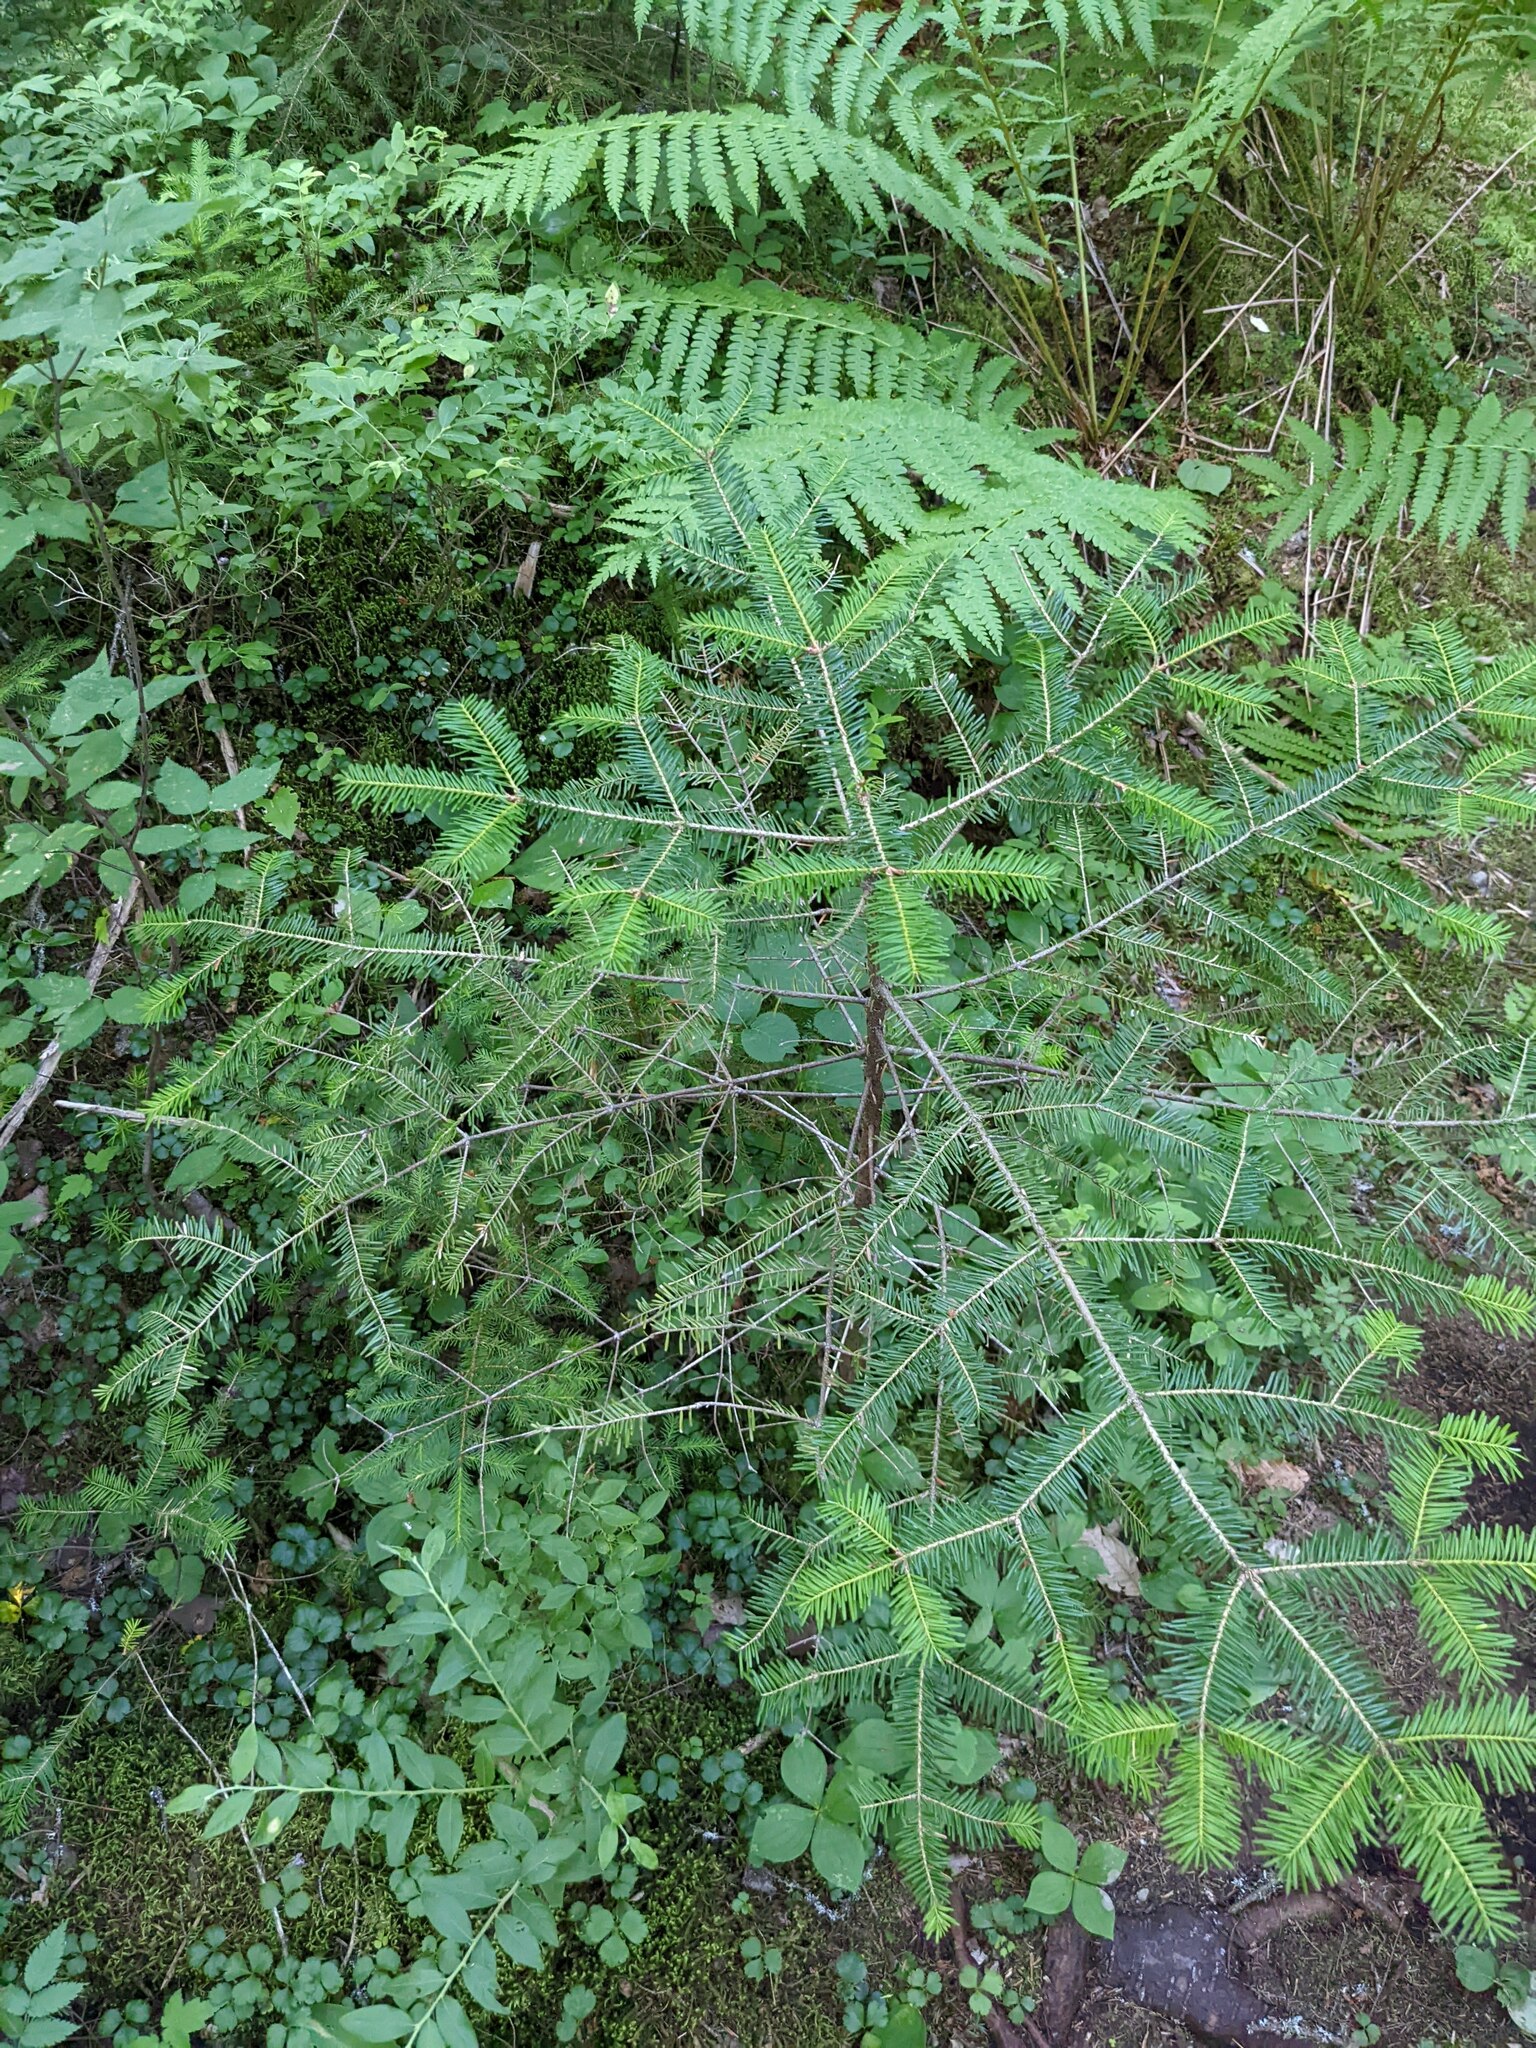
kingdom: Plantae
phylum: Tracheophyta
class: Pinopsida
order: Pinales
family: Pinaceae
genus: Abies
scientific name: Abies balsamea
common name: Balsam fir
